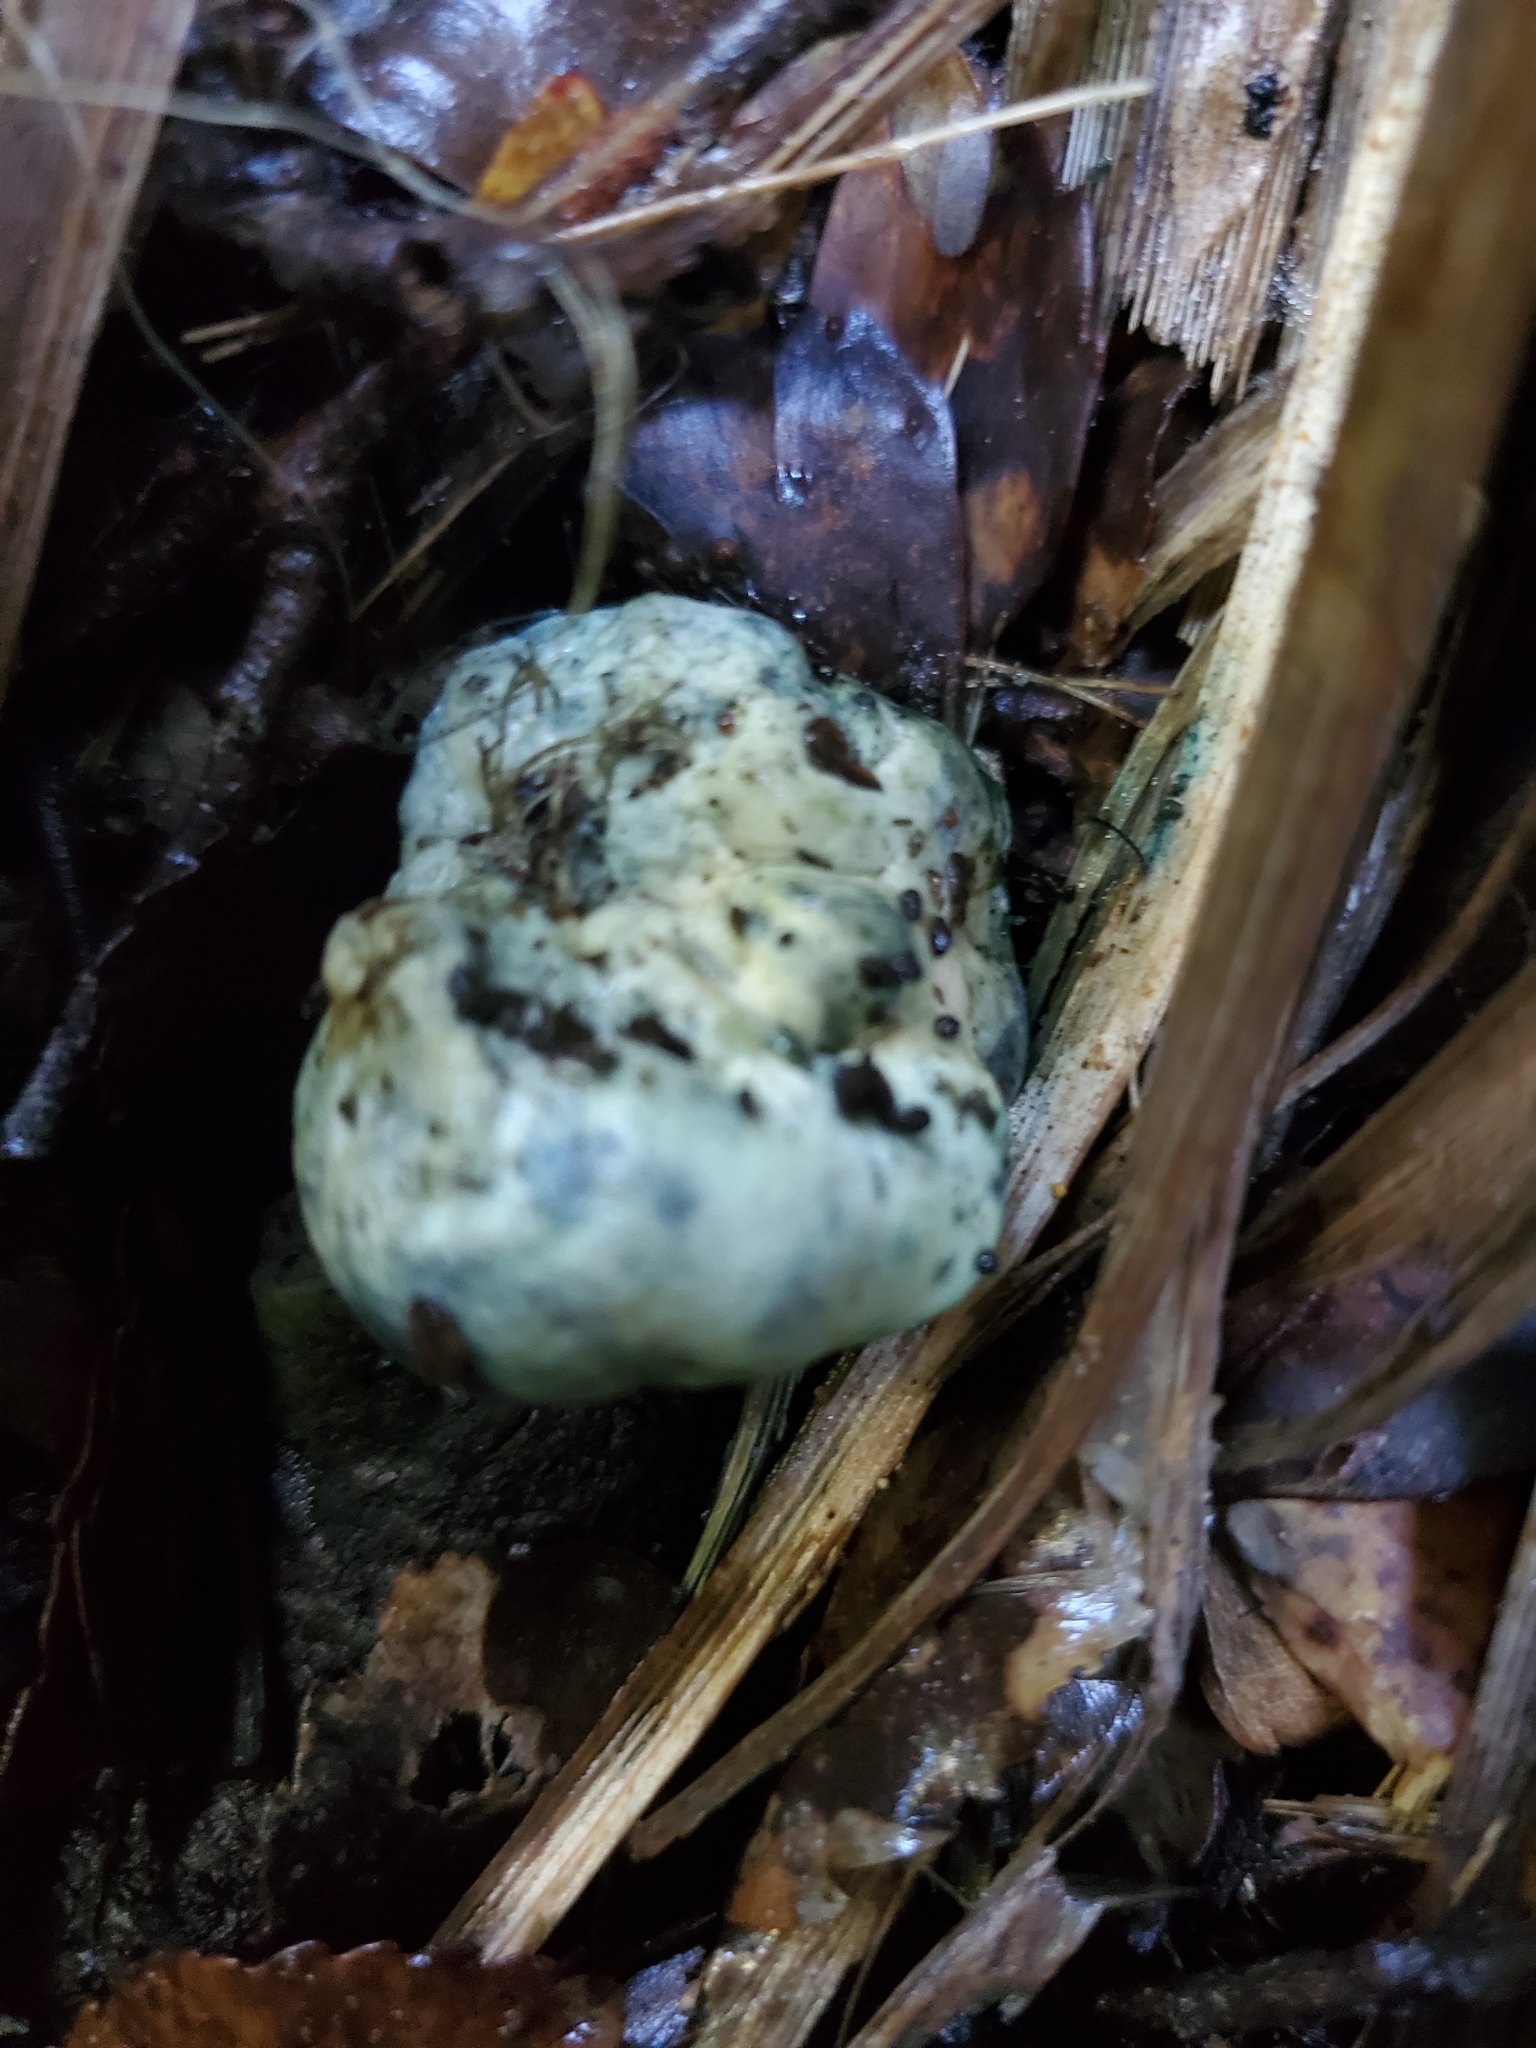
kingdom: Fungi
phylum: Basidiomycota
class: Agaricomycetes
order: Boletales
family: Boletaceae
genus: Leccinum
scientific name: Leccinum pachyderme
